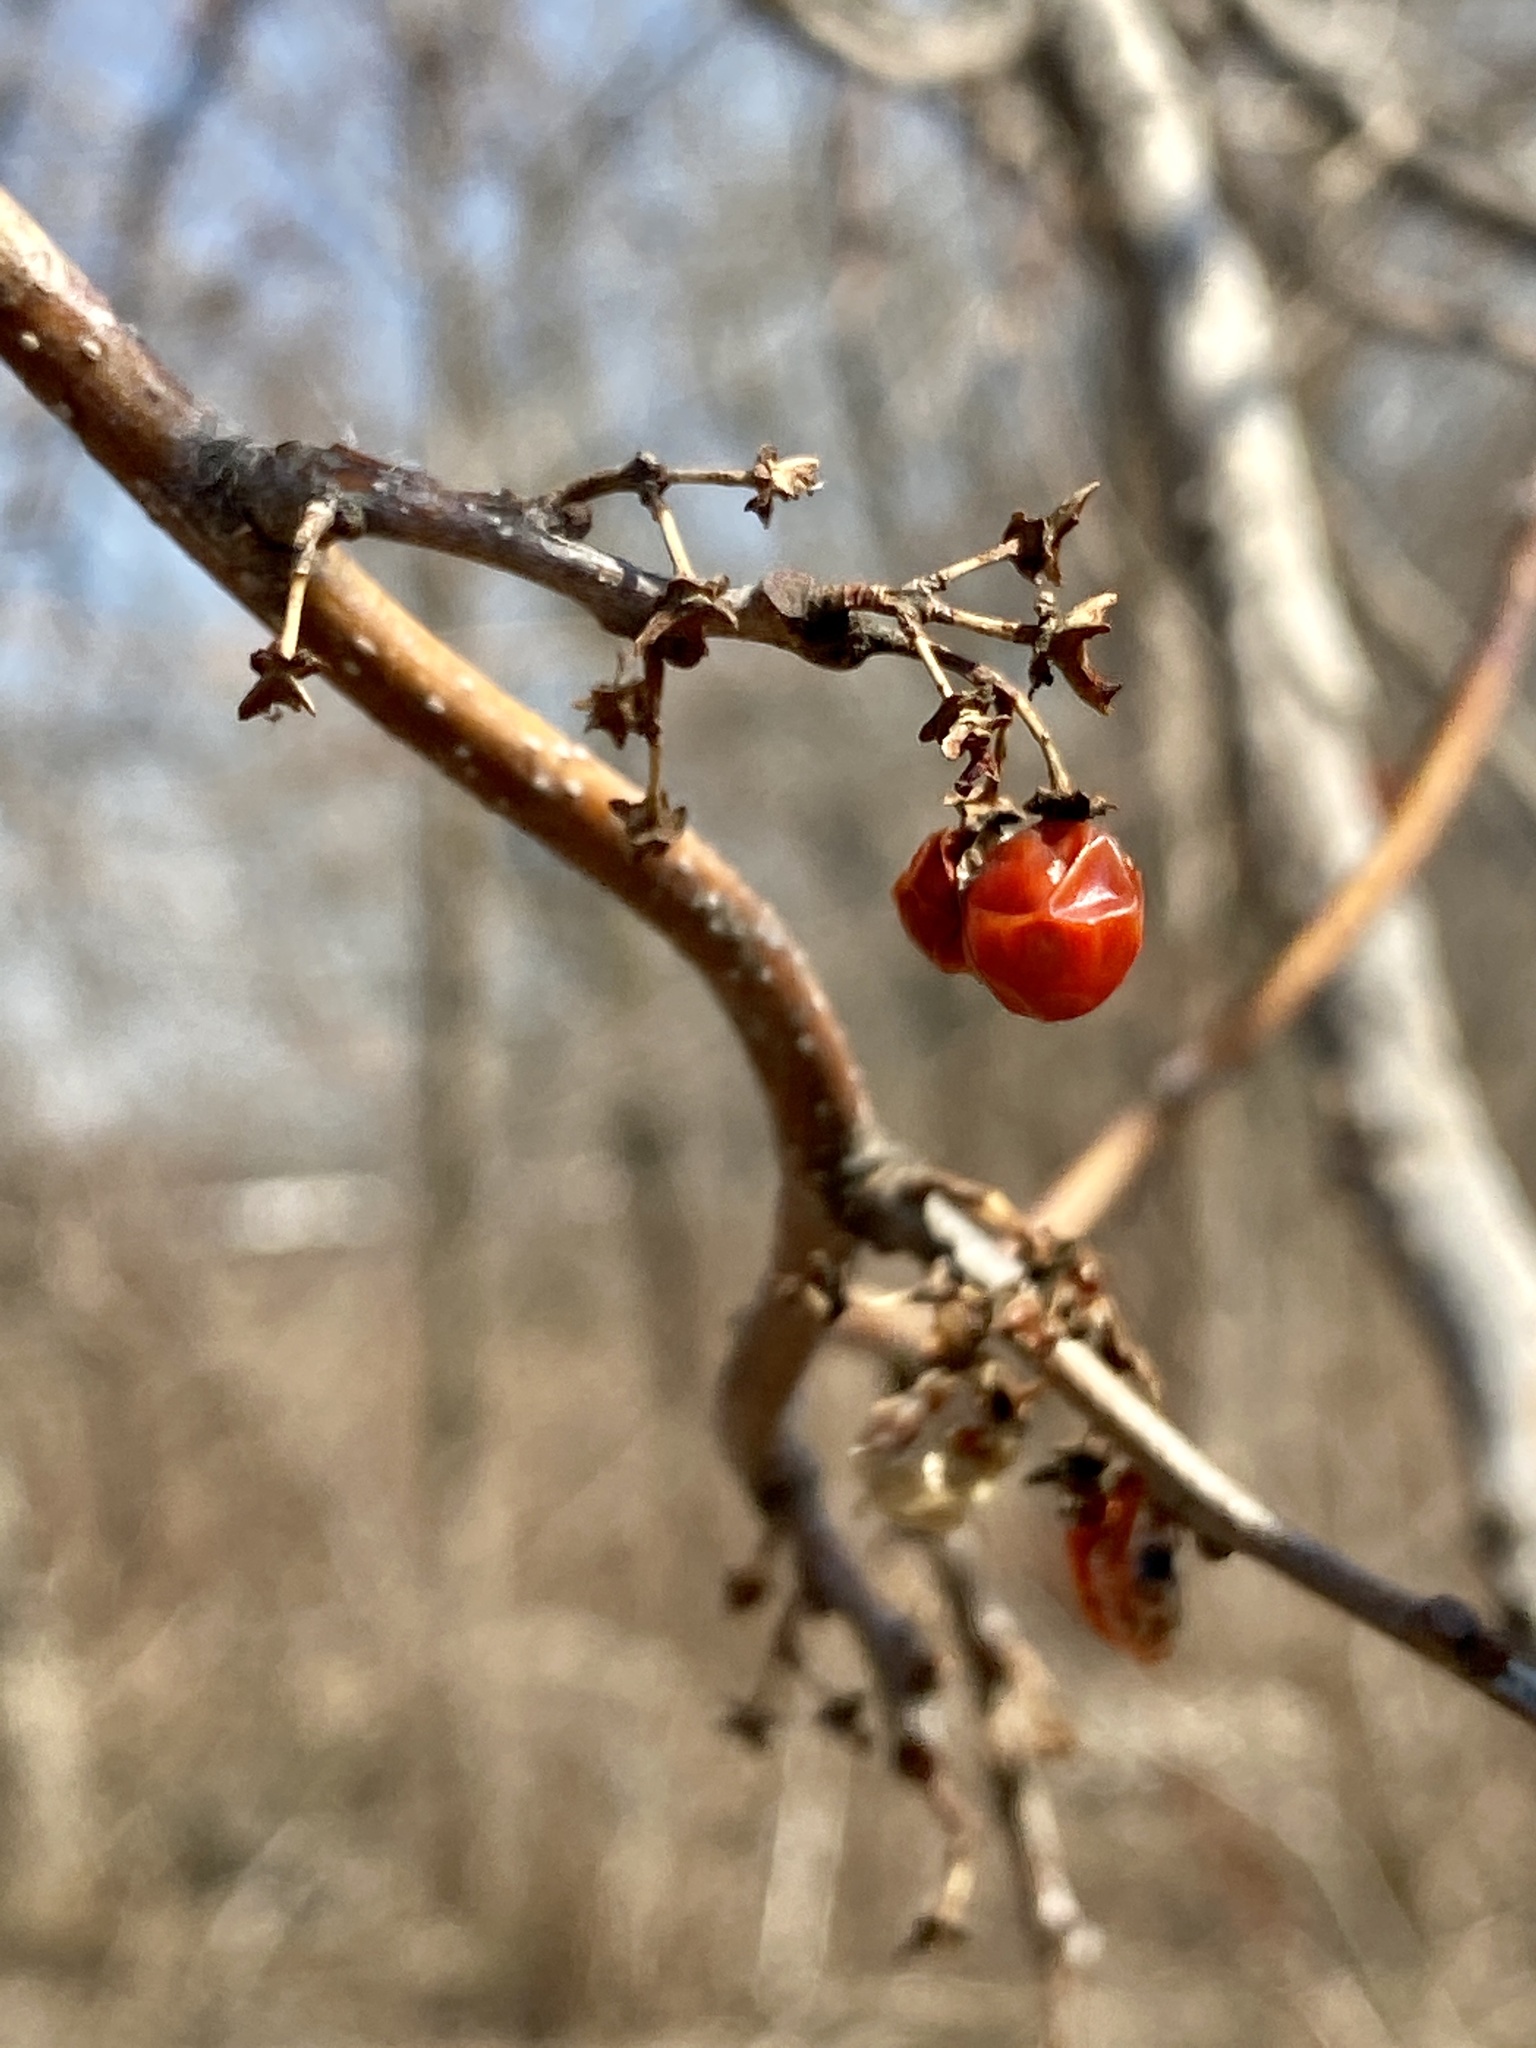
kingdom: Plantae
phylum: Tracheophyta
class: Magnoliopsida
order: Celastrales
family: Celastraceae
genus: Celastrus
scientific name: Celastrus orbiculatus
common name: Oriental bittersweet
